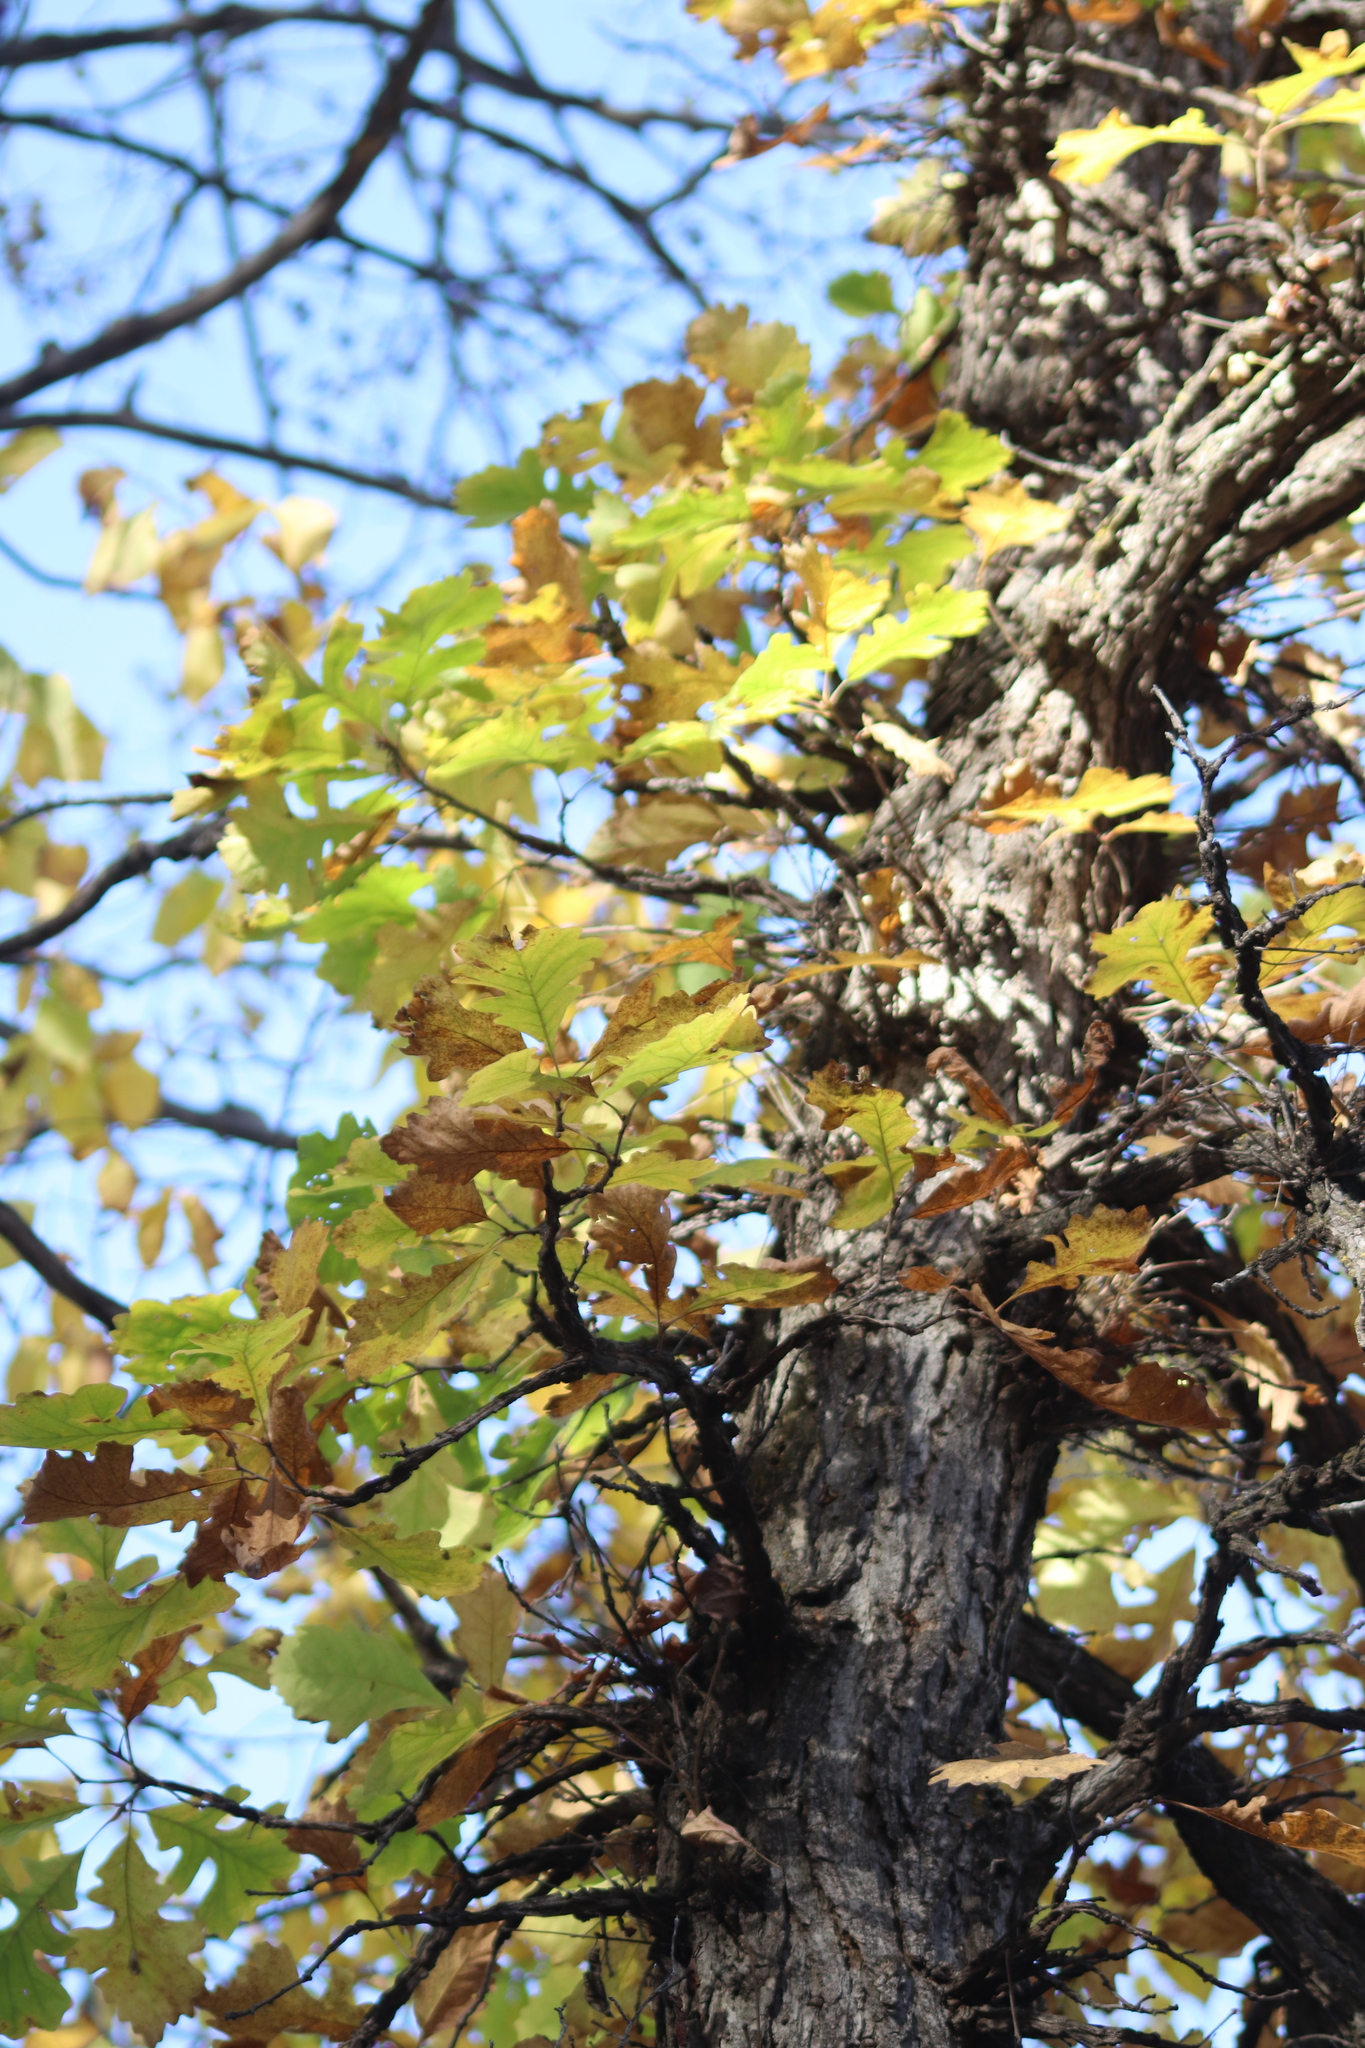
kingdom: Plantae
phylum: Tracheophyta
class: Magnoliopsida
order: Fagales
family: Fagaceae
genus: Quercus
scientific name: Quercus macrocarpa
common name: Bur oak
